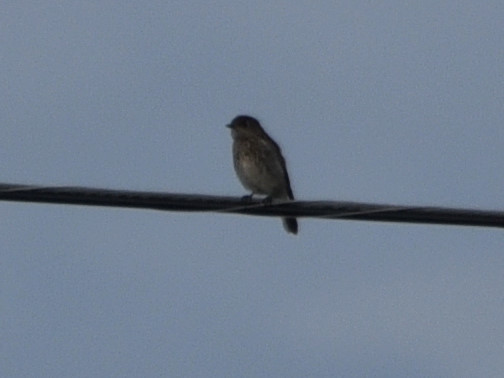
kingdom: Animalia
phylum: Chordata
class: Aves
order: Passeriformes
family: Turdidae
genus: Sialia
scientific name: Sialia sialis
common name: Eastern bluebird
